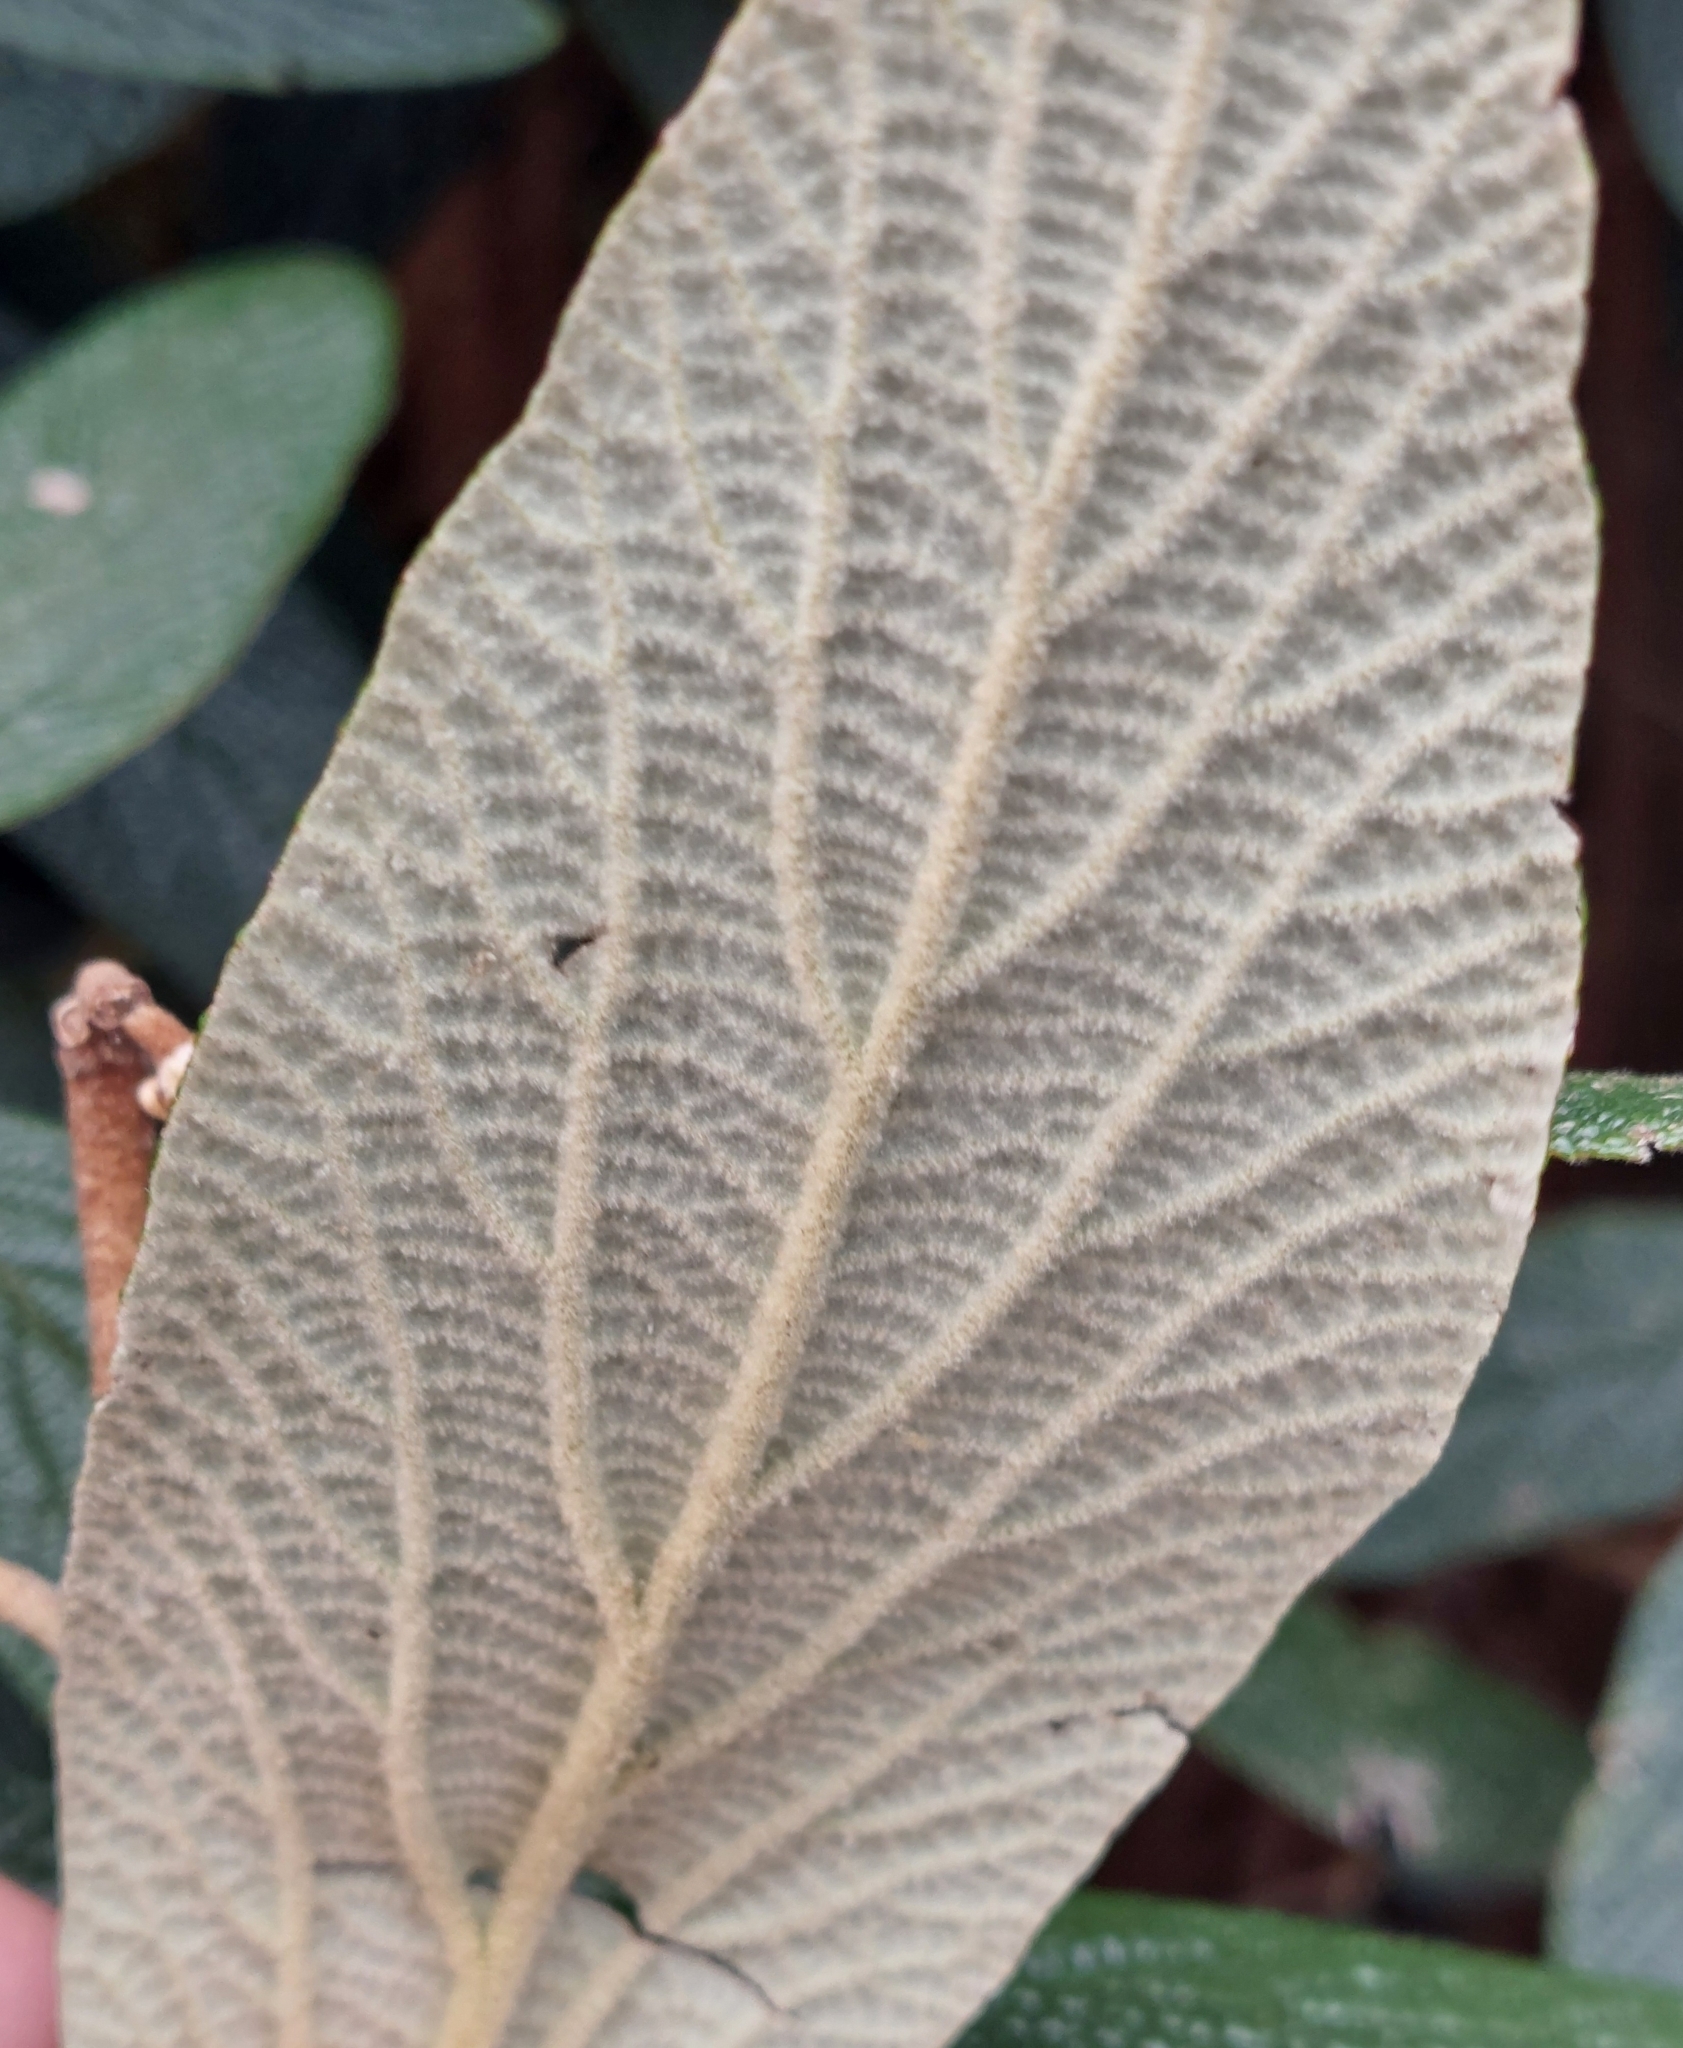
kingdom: Plantae
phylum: Tracheophyta
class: Magnoliopsida
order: Dipsacales
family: Viburnaceae
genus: Viburnum
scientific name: Viburnum rhytidophyllum
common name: Wrinkled viburnum
